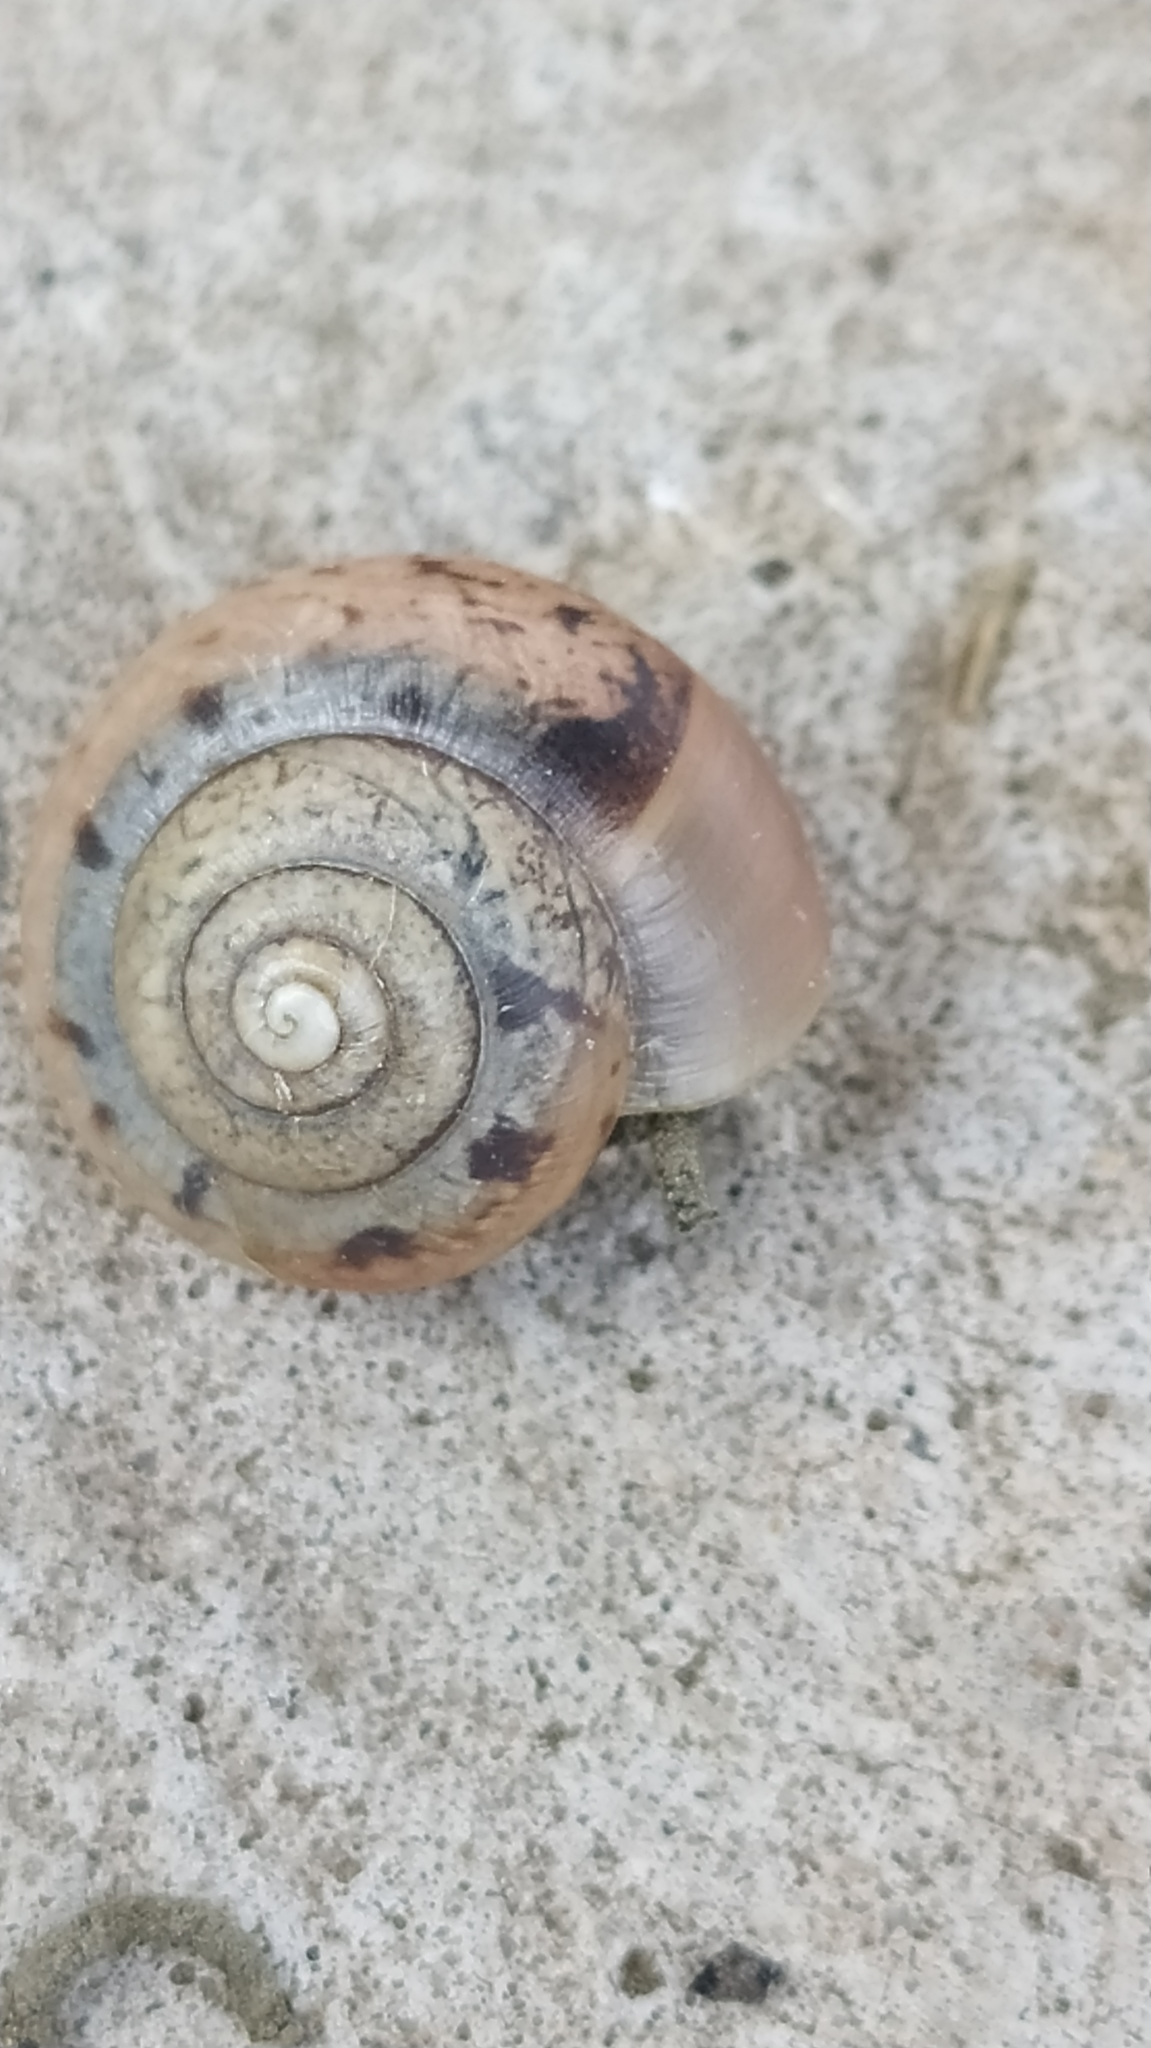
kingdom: Animalia
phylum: Mollusca
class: Gastropoda
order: Stylommatophora
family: Camaenidae
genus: Fruticicola
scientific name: Fruticicola fruticum
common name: Bush snail
